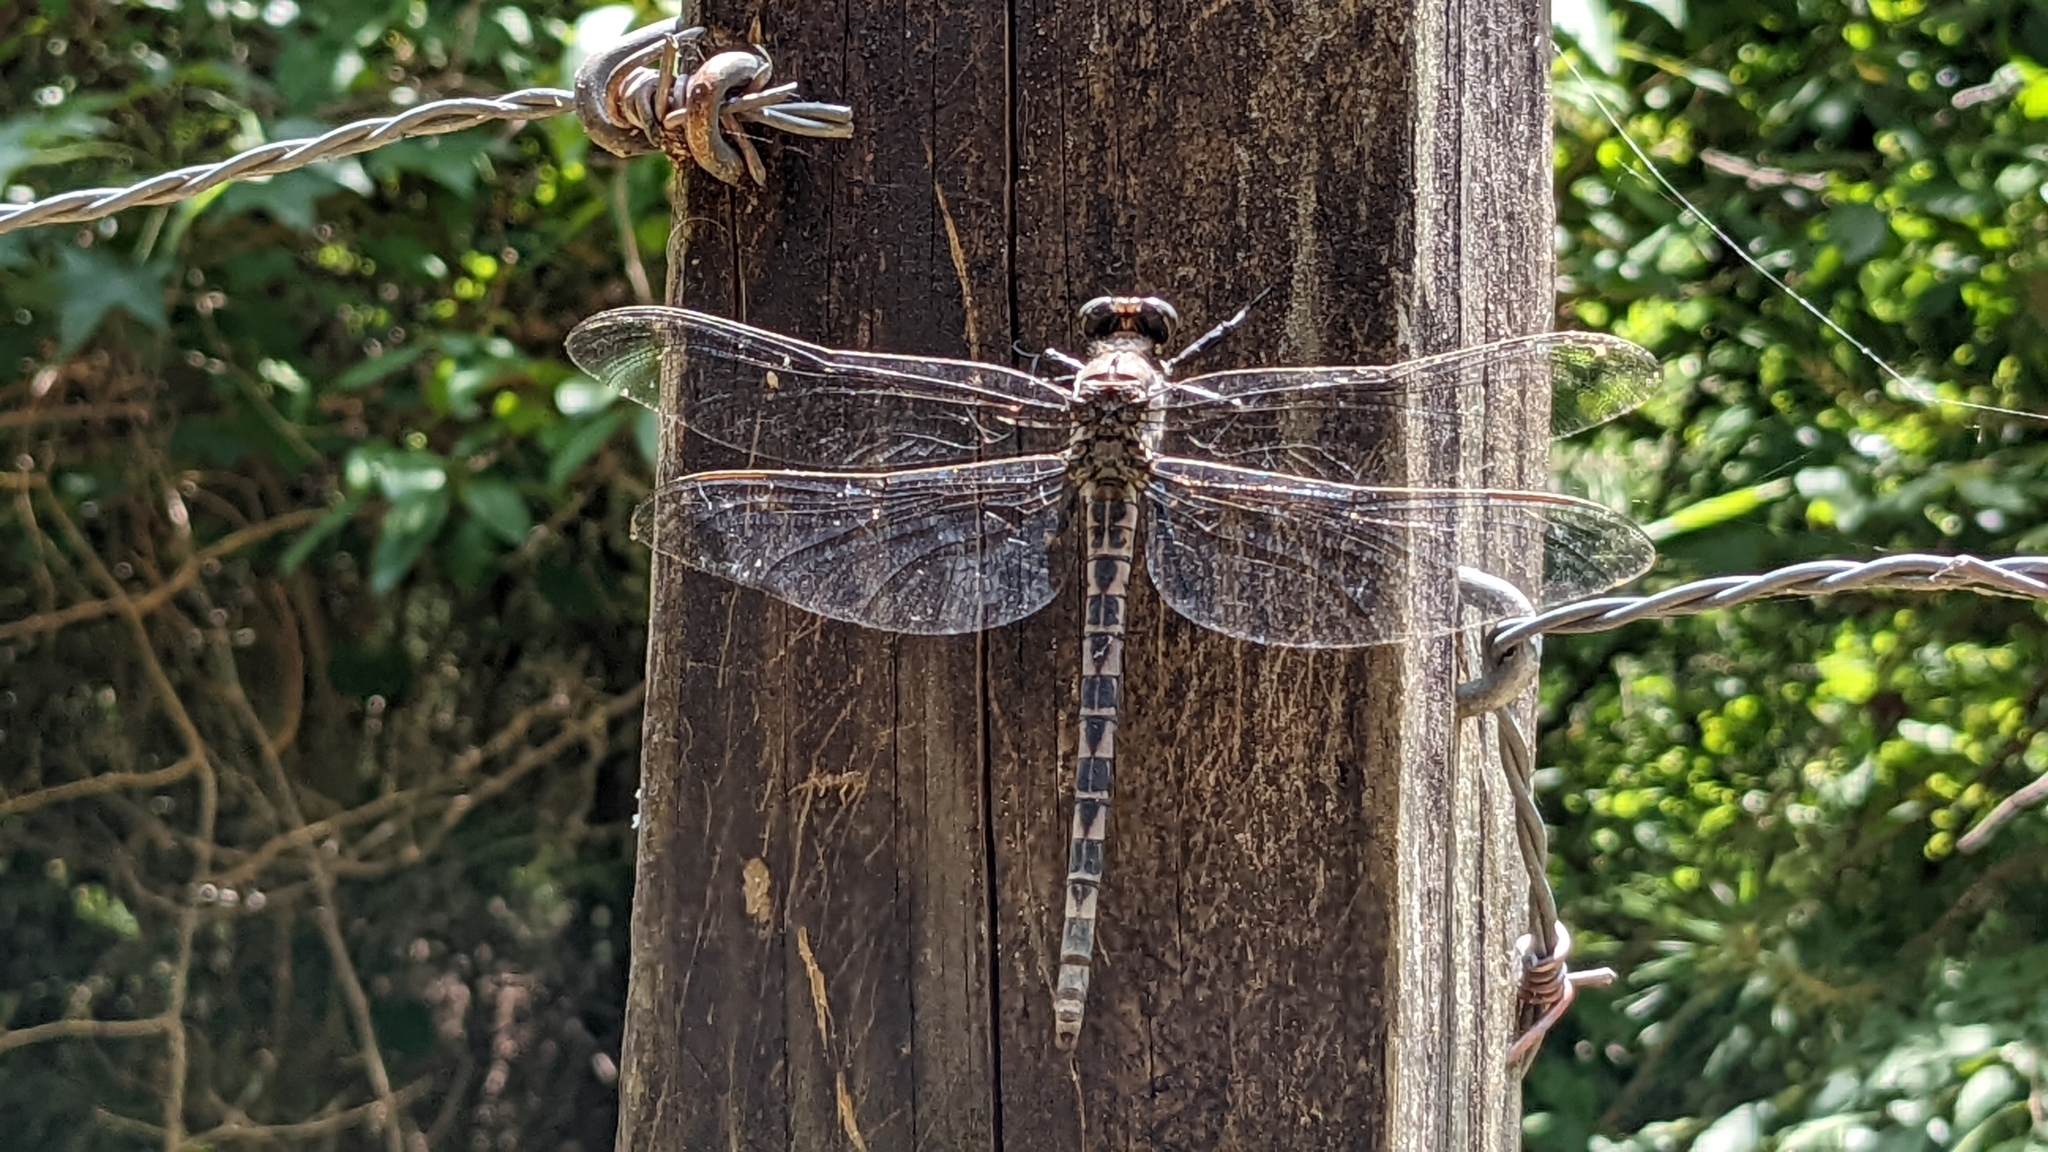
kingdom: Animalia
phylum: Arthropoda
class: Insecta
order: Odonata
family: Petaluridae
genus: Tachopteryx
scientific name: Tachopteryx thoreyi
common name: Gray petaltail
